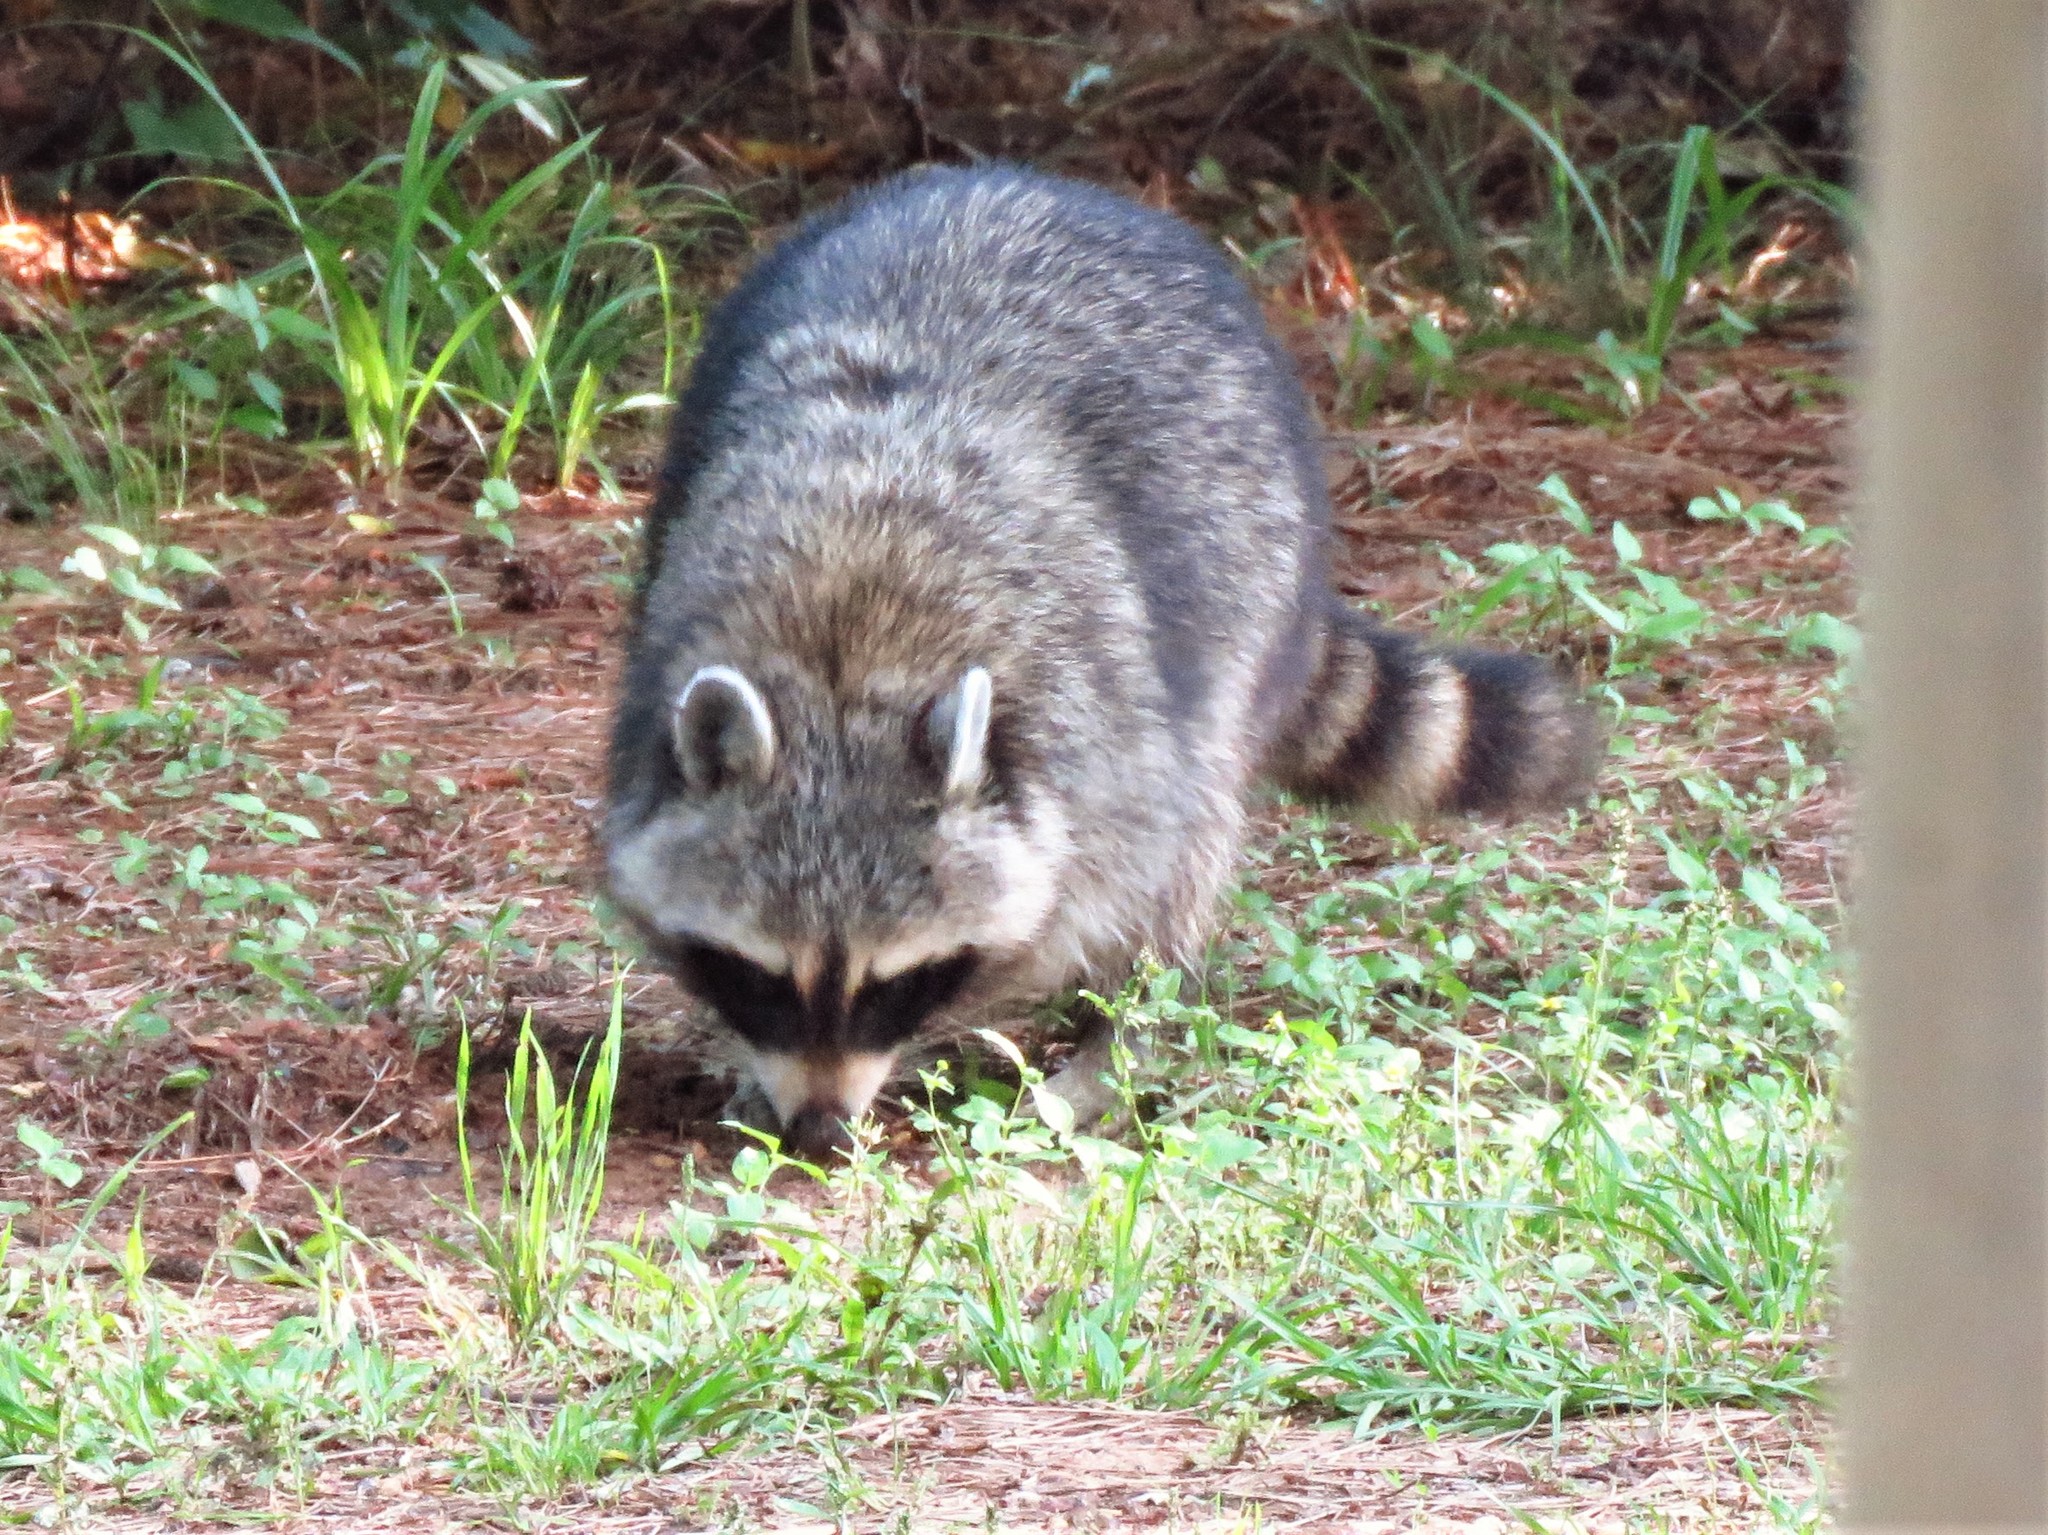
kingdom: Animalia
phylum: Chordata
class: Mammalia
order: Carnivora
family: Procyonidae
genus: Procyon
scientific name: Procyon lotor
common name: Raccoon
